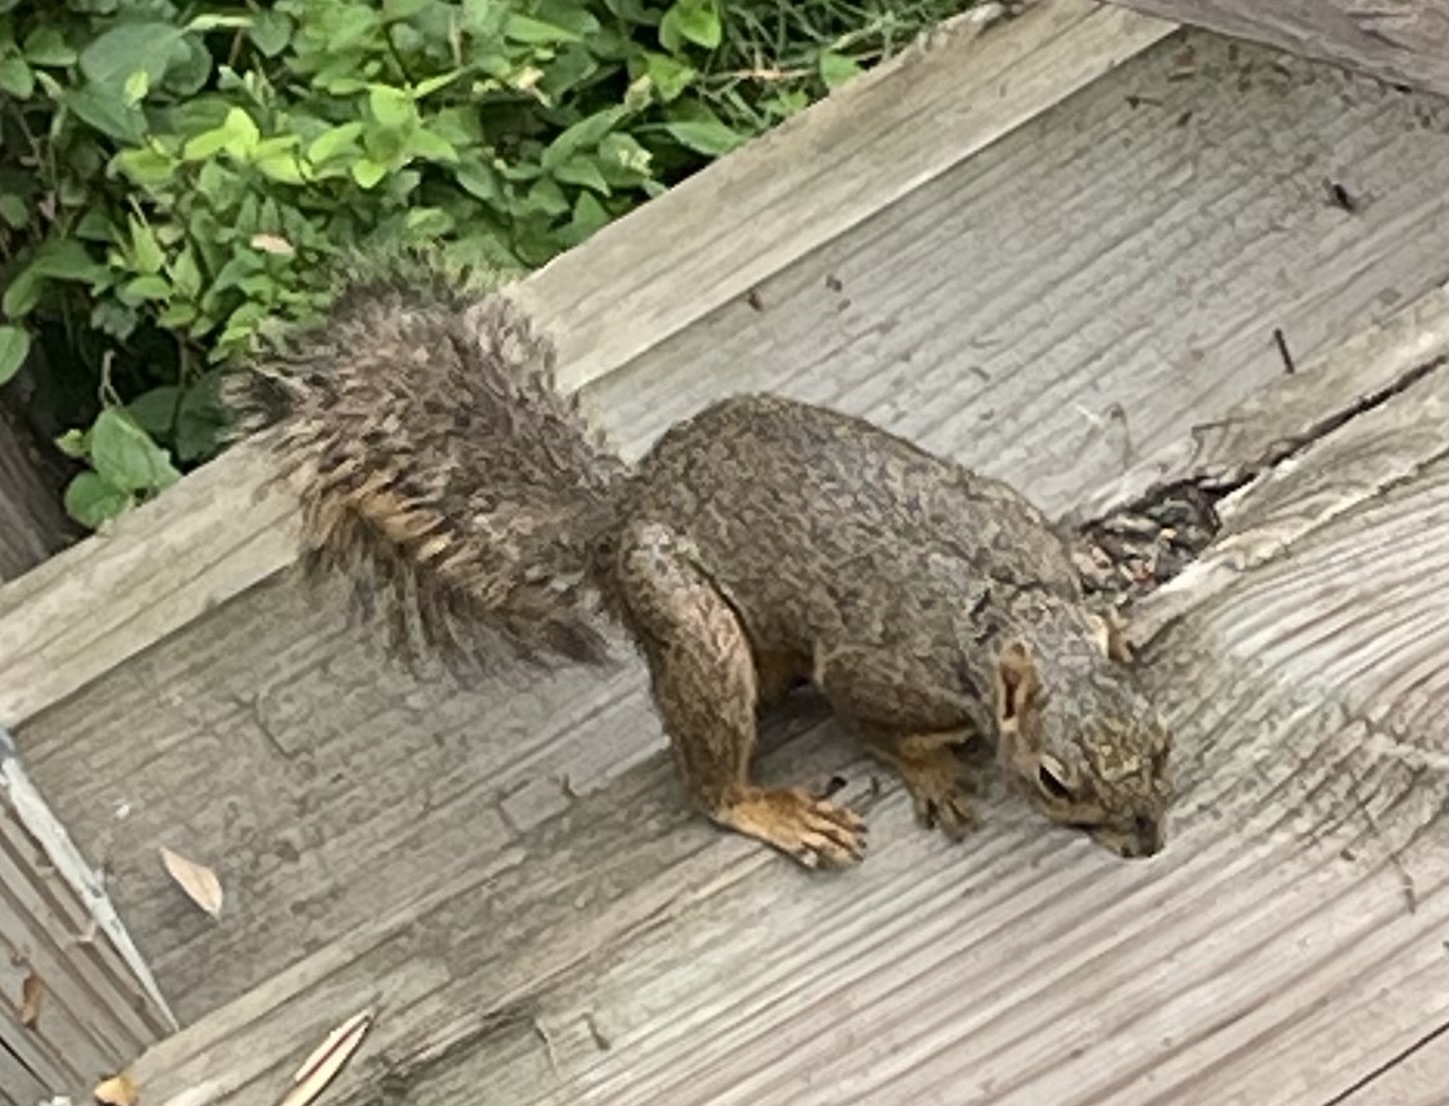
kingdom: Animalia
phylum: Chordata
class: Mammalia
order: Rodentia
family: Sciuridae
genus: Sciurus
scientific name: Sciurus niger
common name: Fox squirrel
